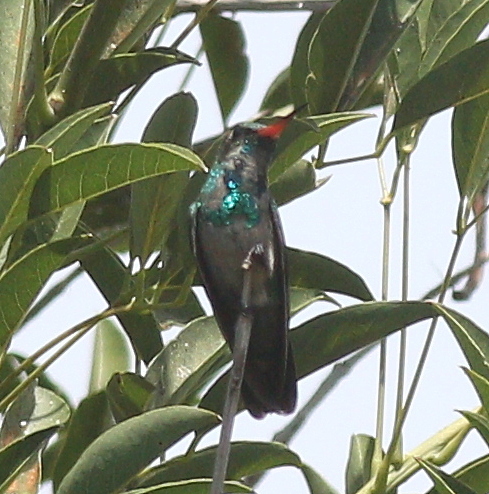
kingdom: Animalia
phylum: Chordata
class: Aves
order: Apodiformes
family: Trochilidae
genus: Chlorostilbon
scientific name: Chlorostilbon lucidus
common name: Glittering-bellied emerald
